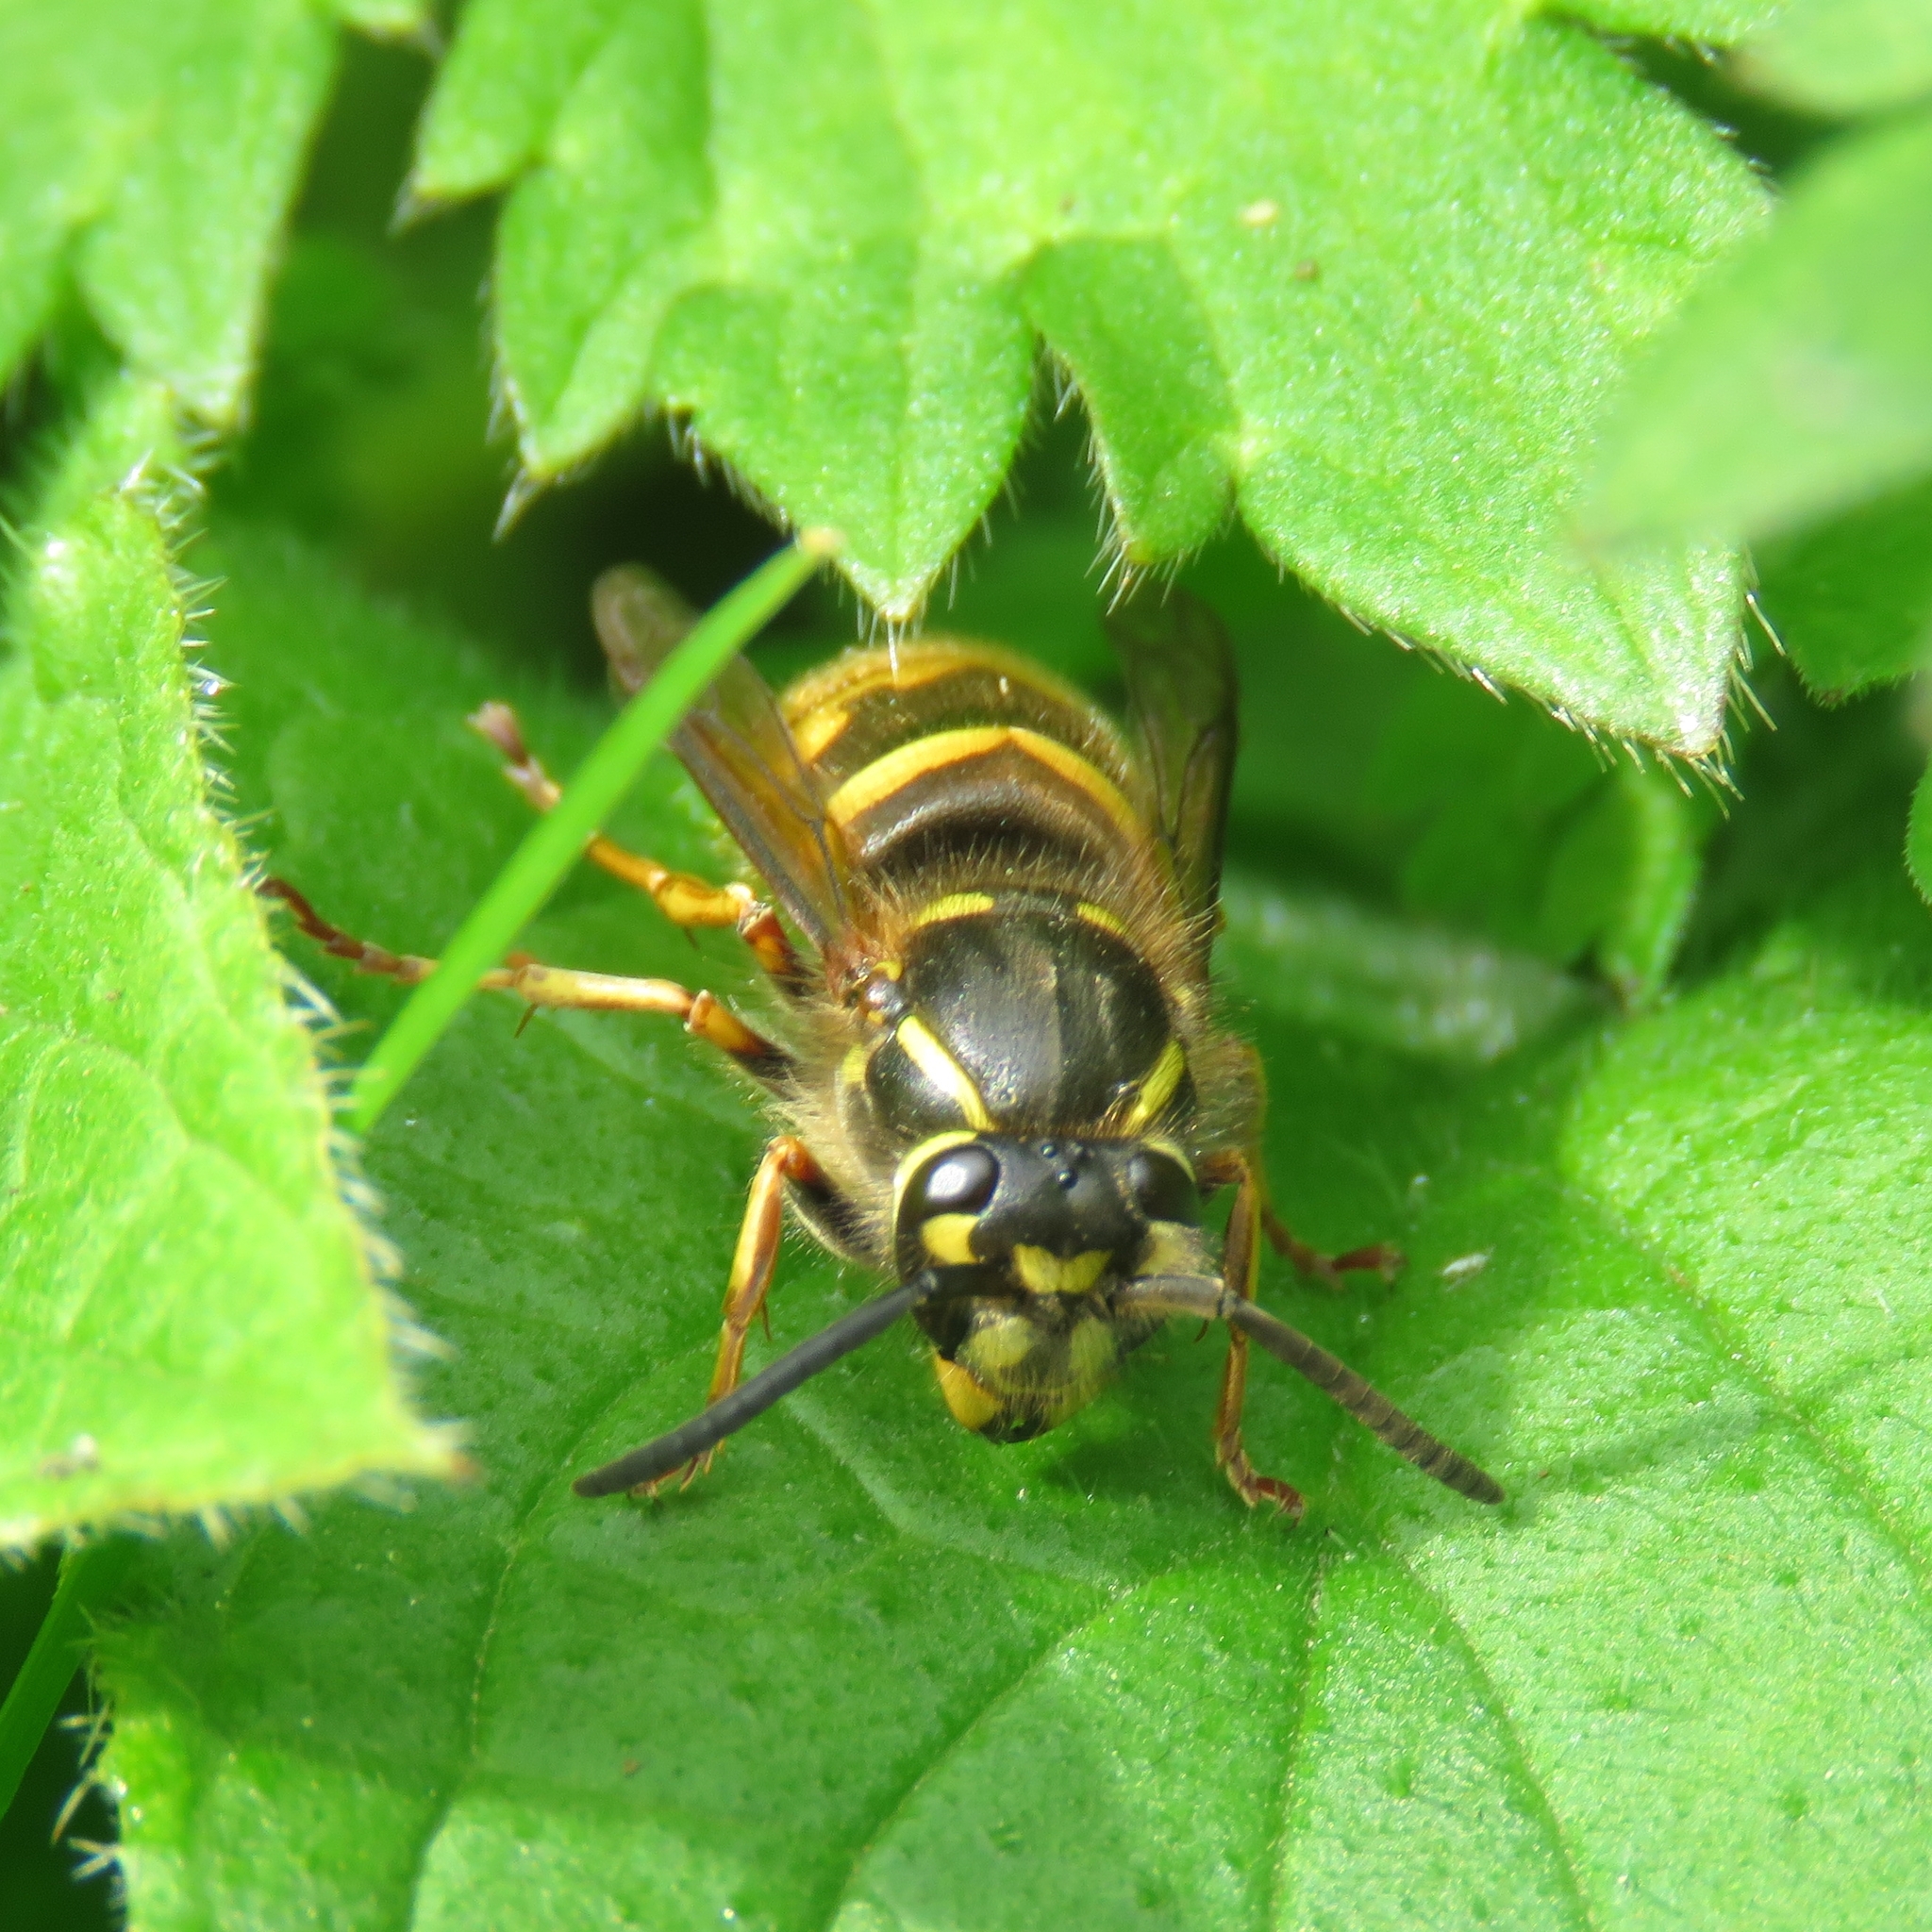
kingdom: Animalia
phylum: Arthropoda
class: Insecta
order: Hymenoptera
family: Vespidae
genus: Vespula
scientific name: Vespula vulgaris
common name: Common wasp
